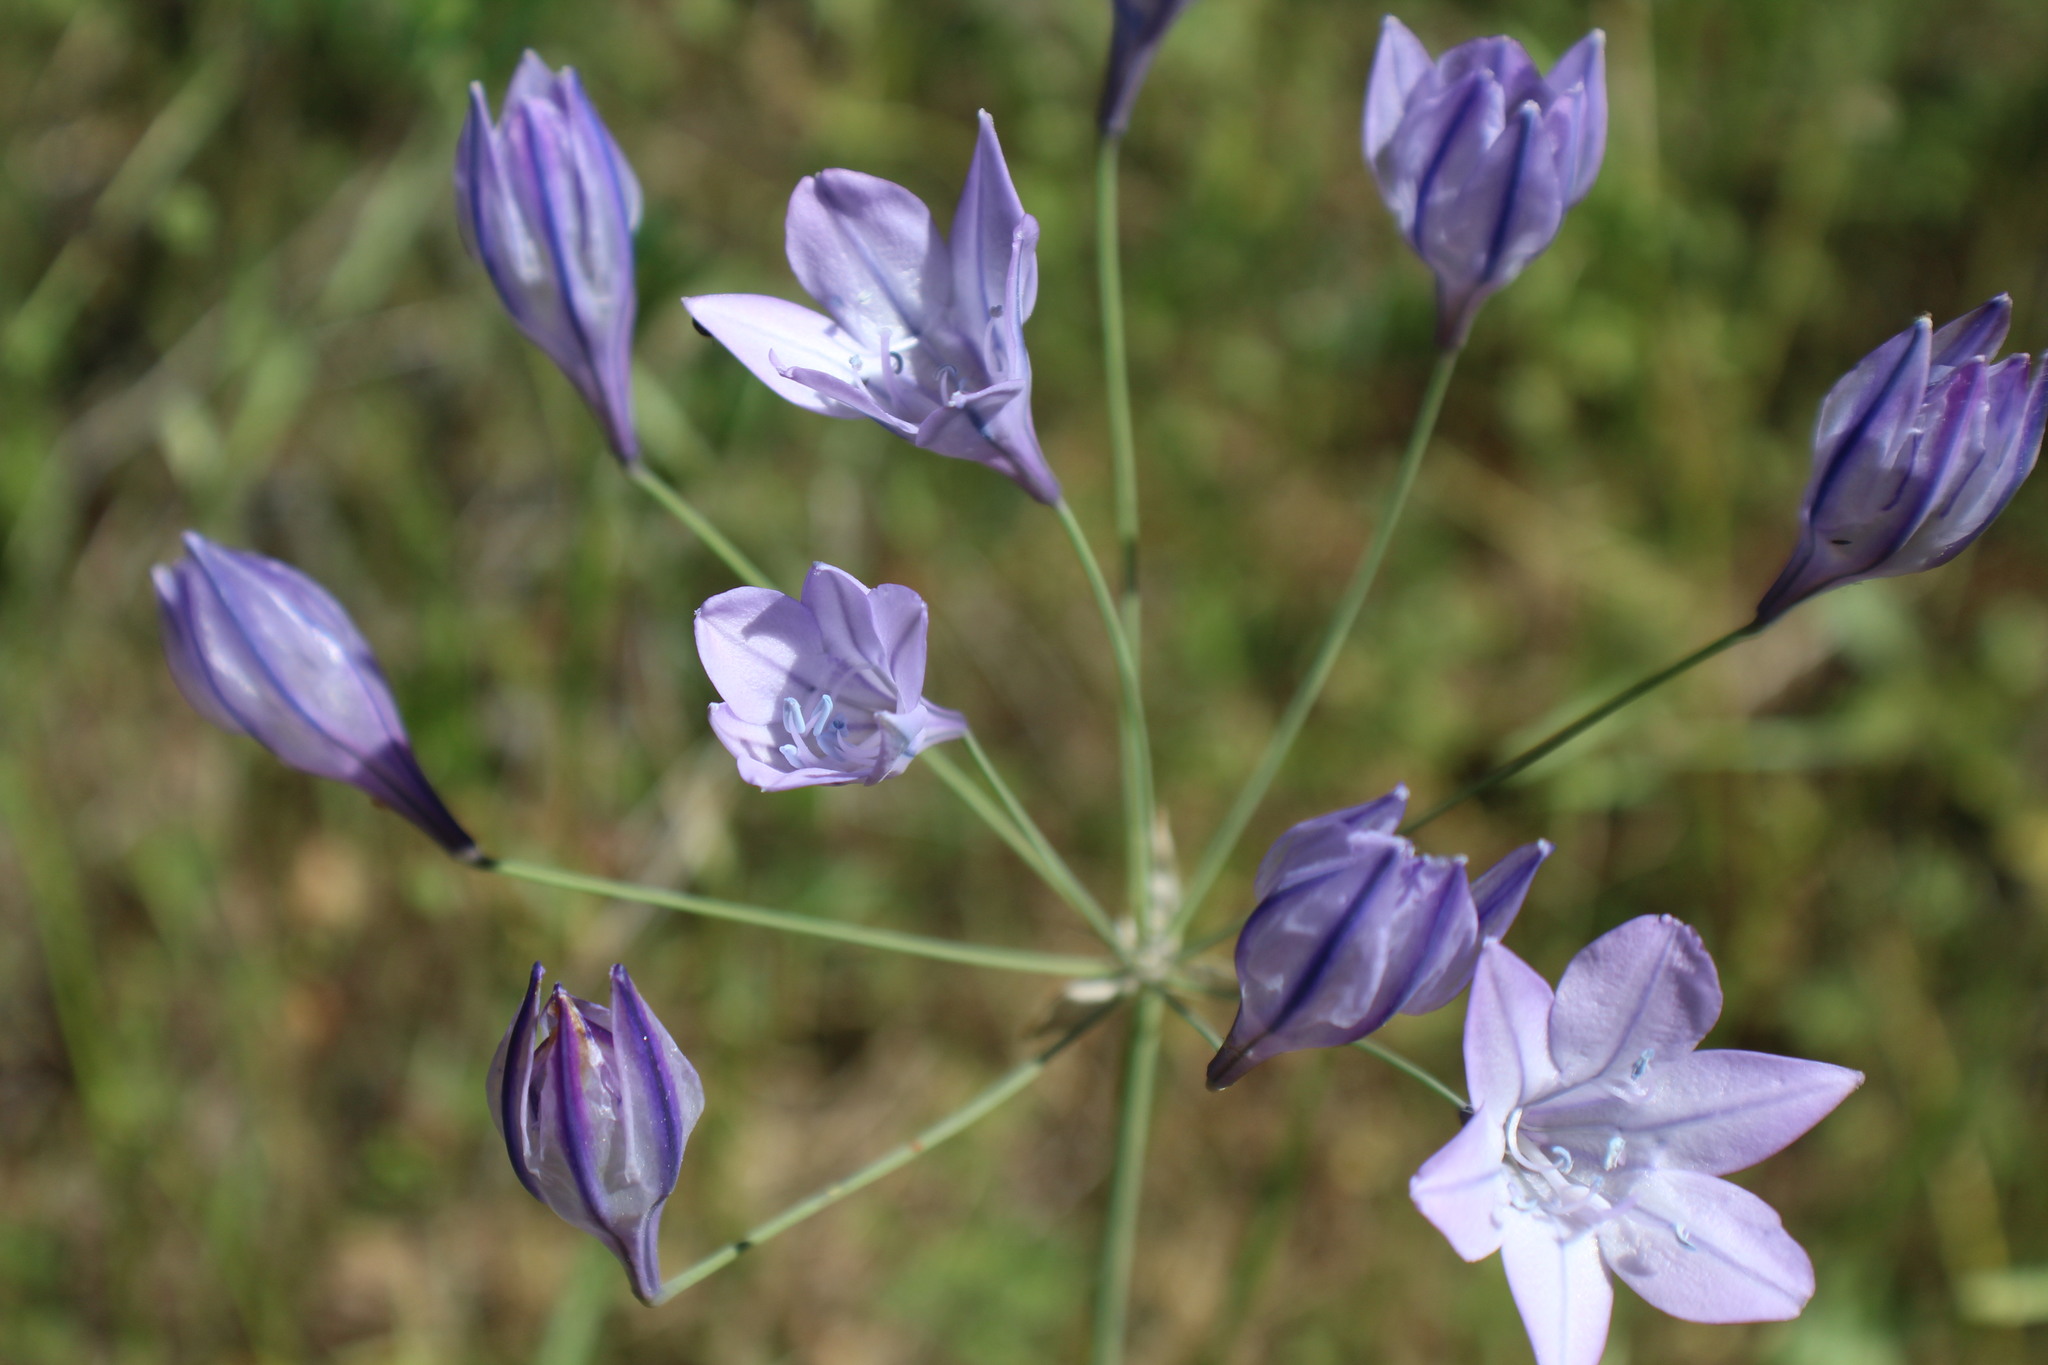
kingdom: Plantae
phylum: Tracheophyta
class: Liliopsida
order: Asparagales
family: Asparagaceae
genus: Triteleia
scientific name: Triteleia laxa
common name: Triplet-lily
